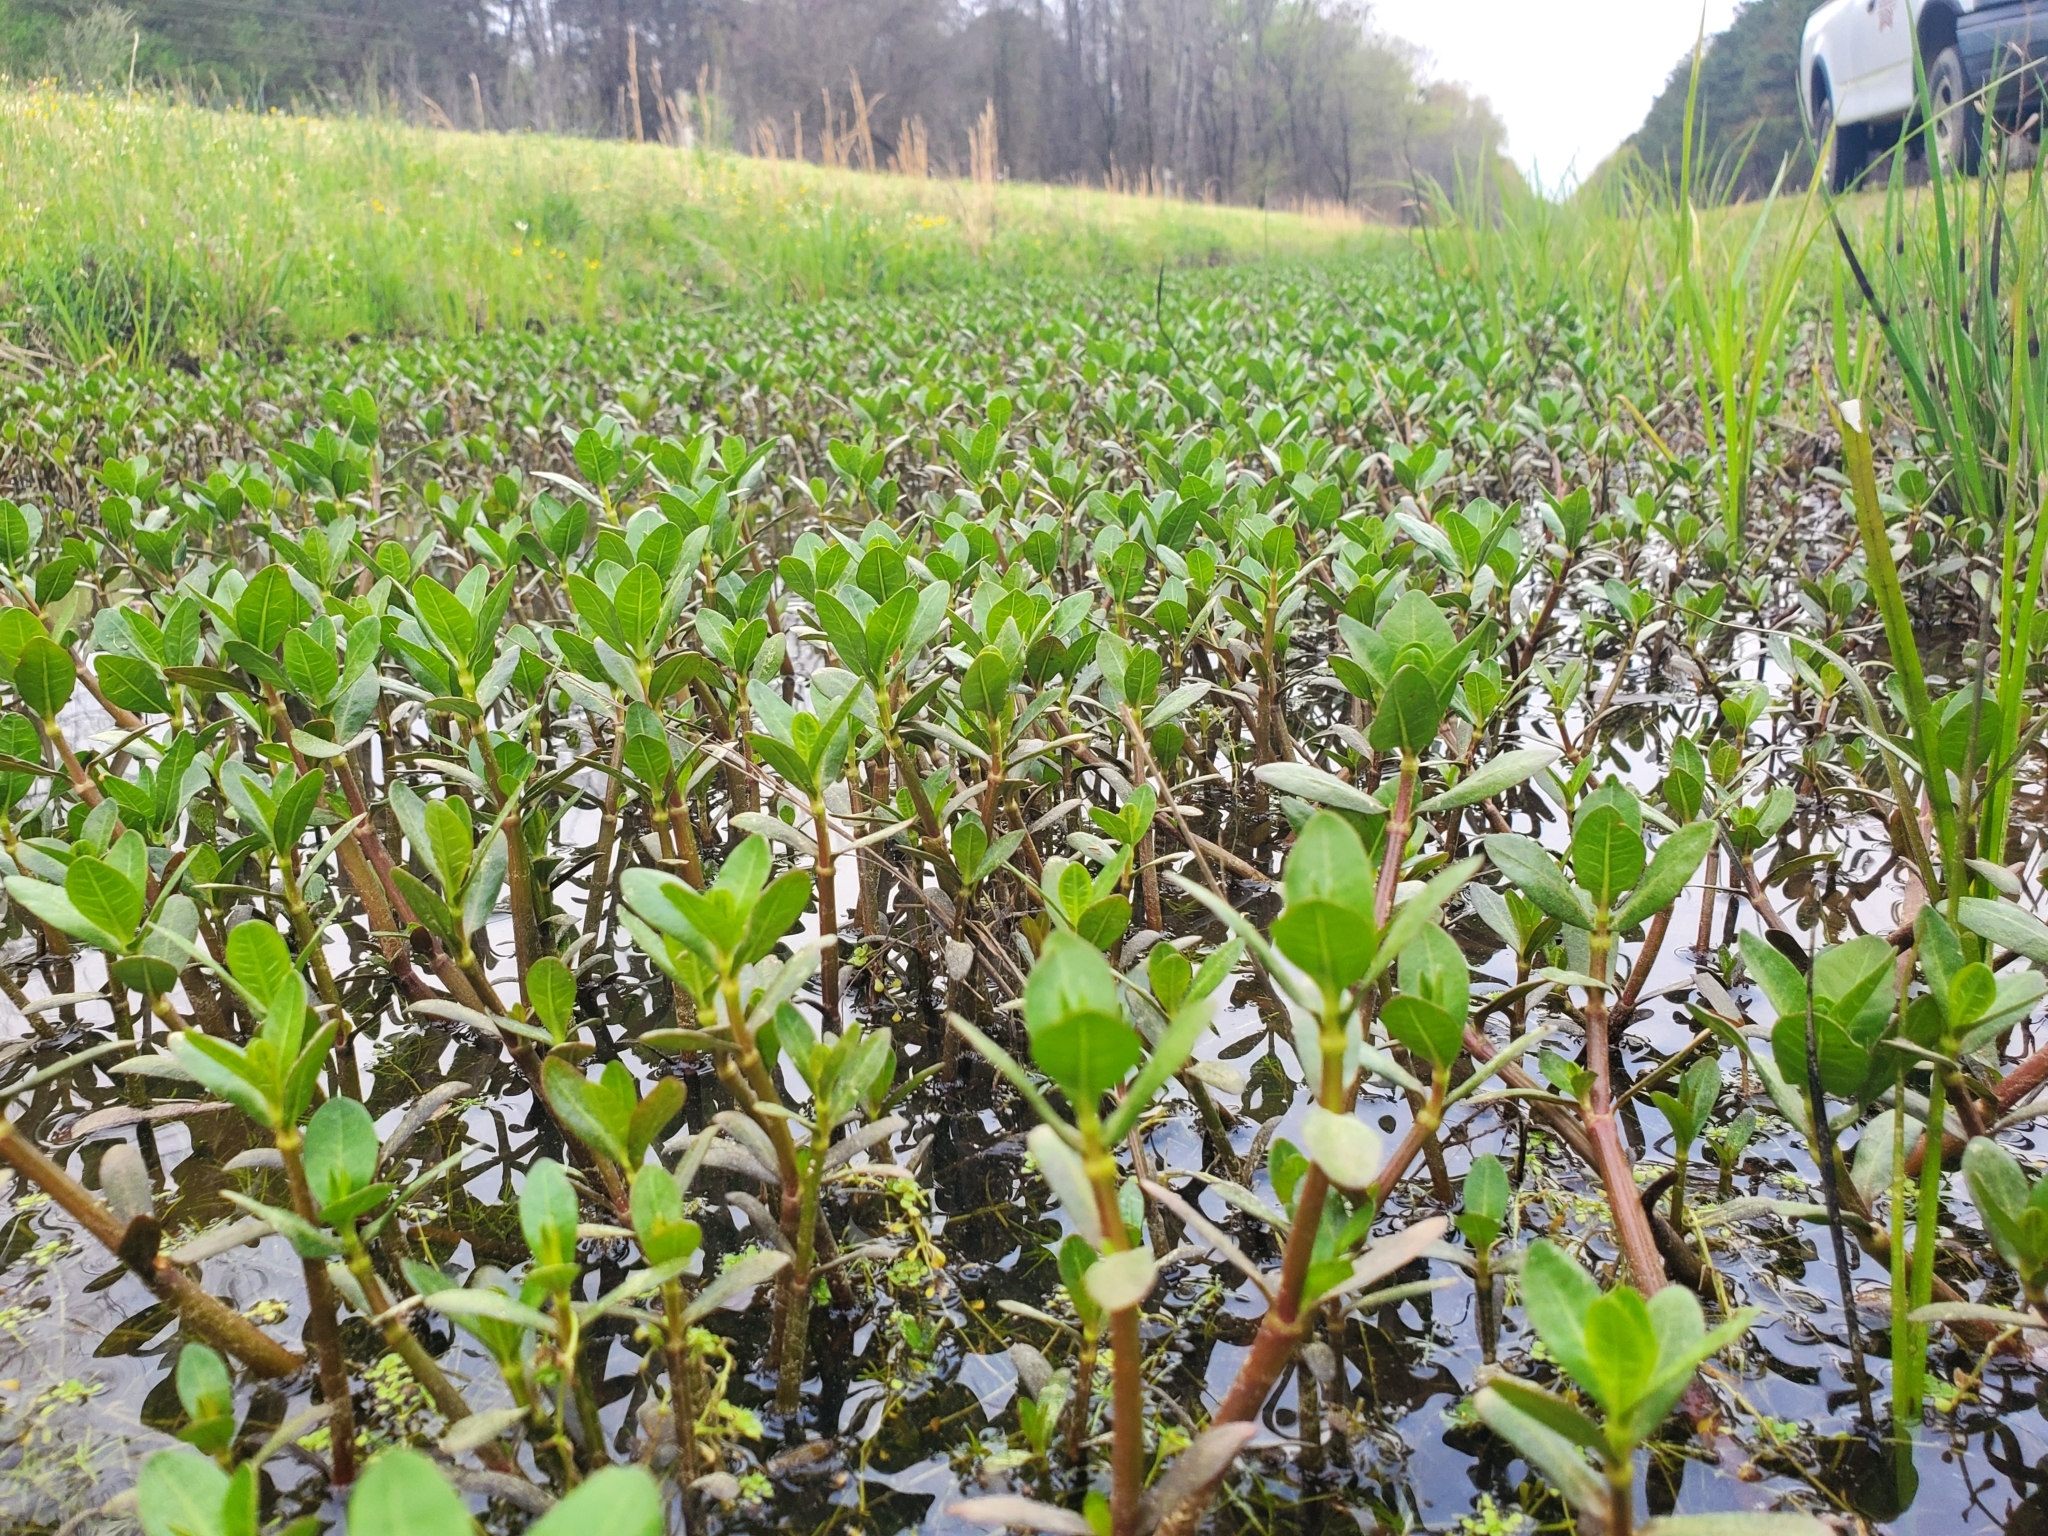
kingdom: Plantae
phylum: Tracheophyta
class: Magnoliopsida
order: Caryophyllales
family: Amaranthaceae
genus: Alternanthera
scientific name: Alternanthera philoxeroides
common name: Alligatorweed
